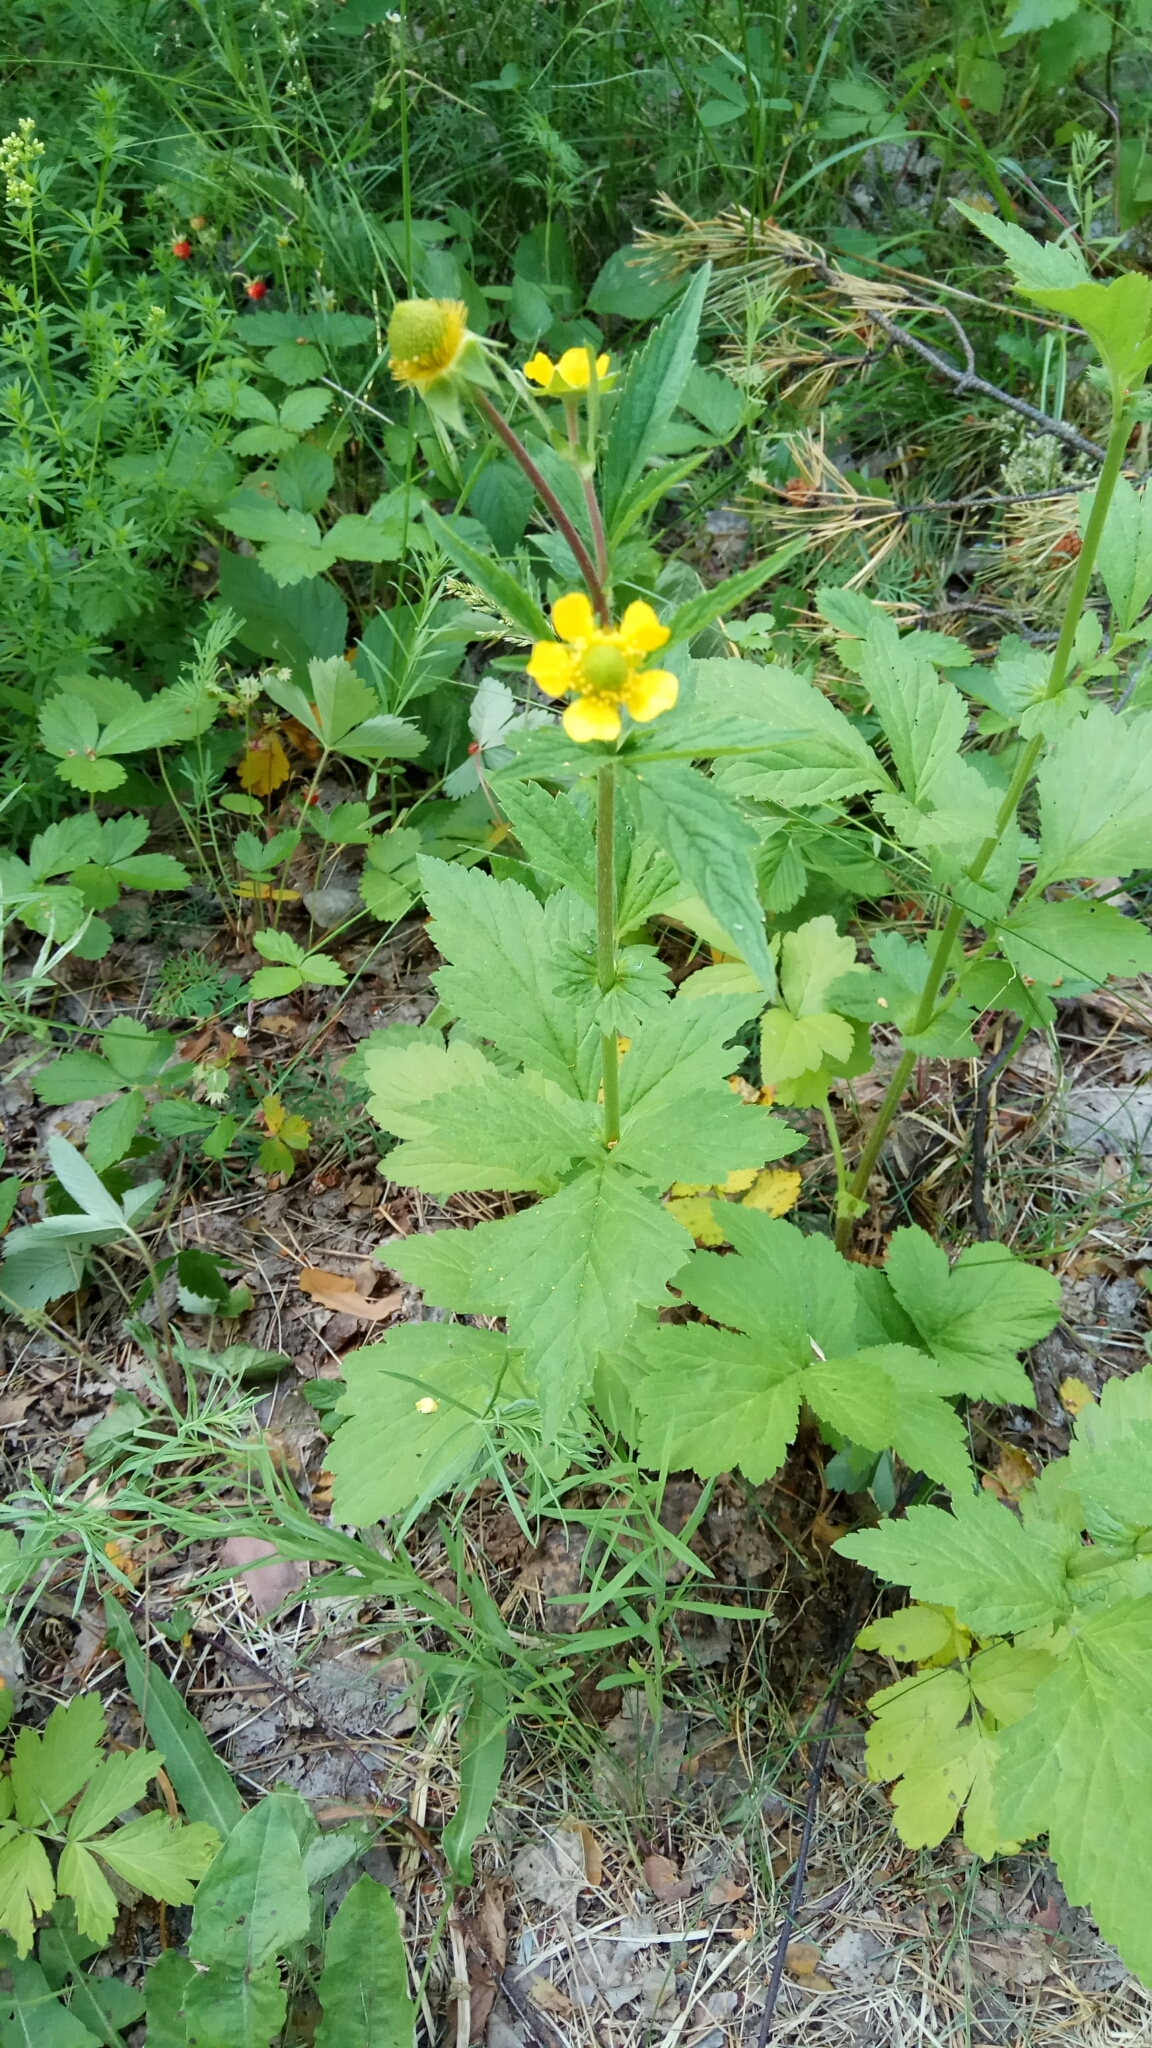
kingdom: Plantae
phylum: Tracheophyta
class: Magnoliopsida
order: Rosales
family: Rosaceae
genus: Geum
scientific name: Geum aleppicum
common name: Yellow avens
